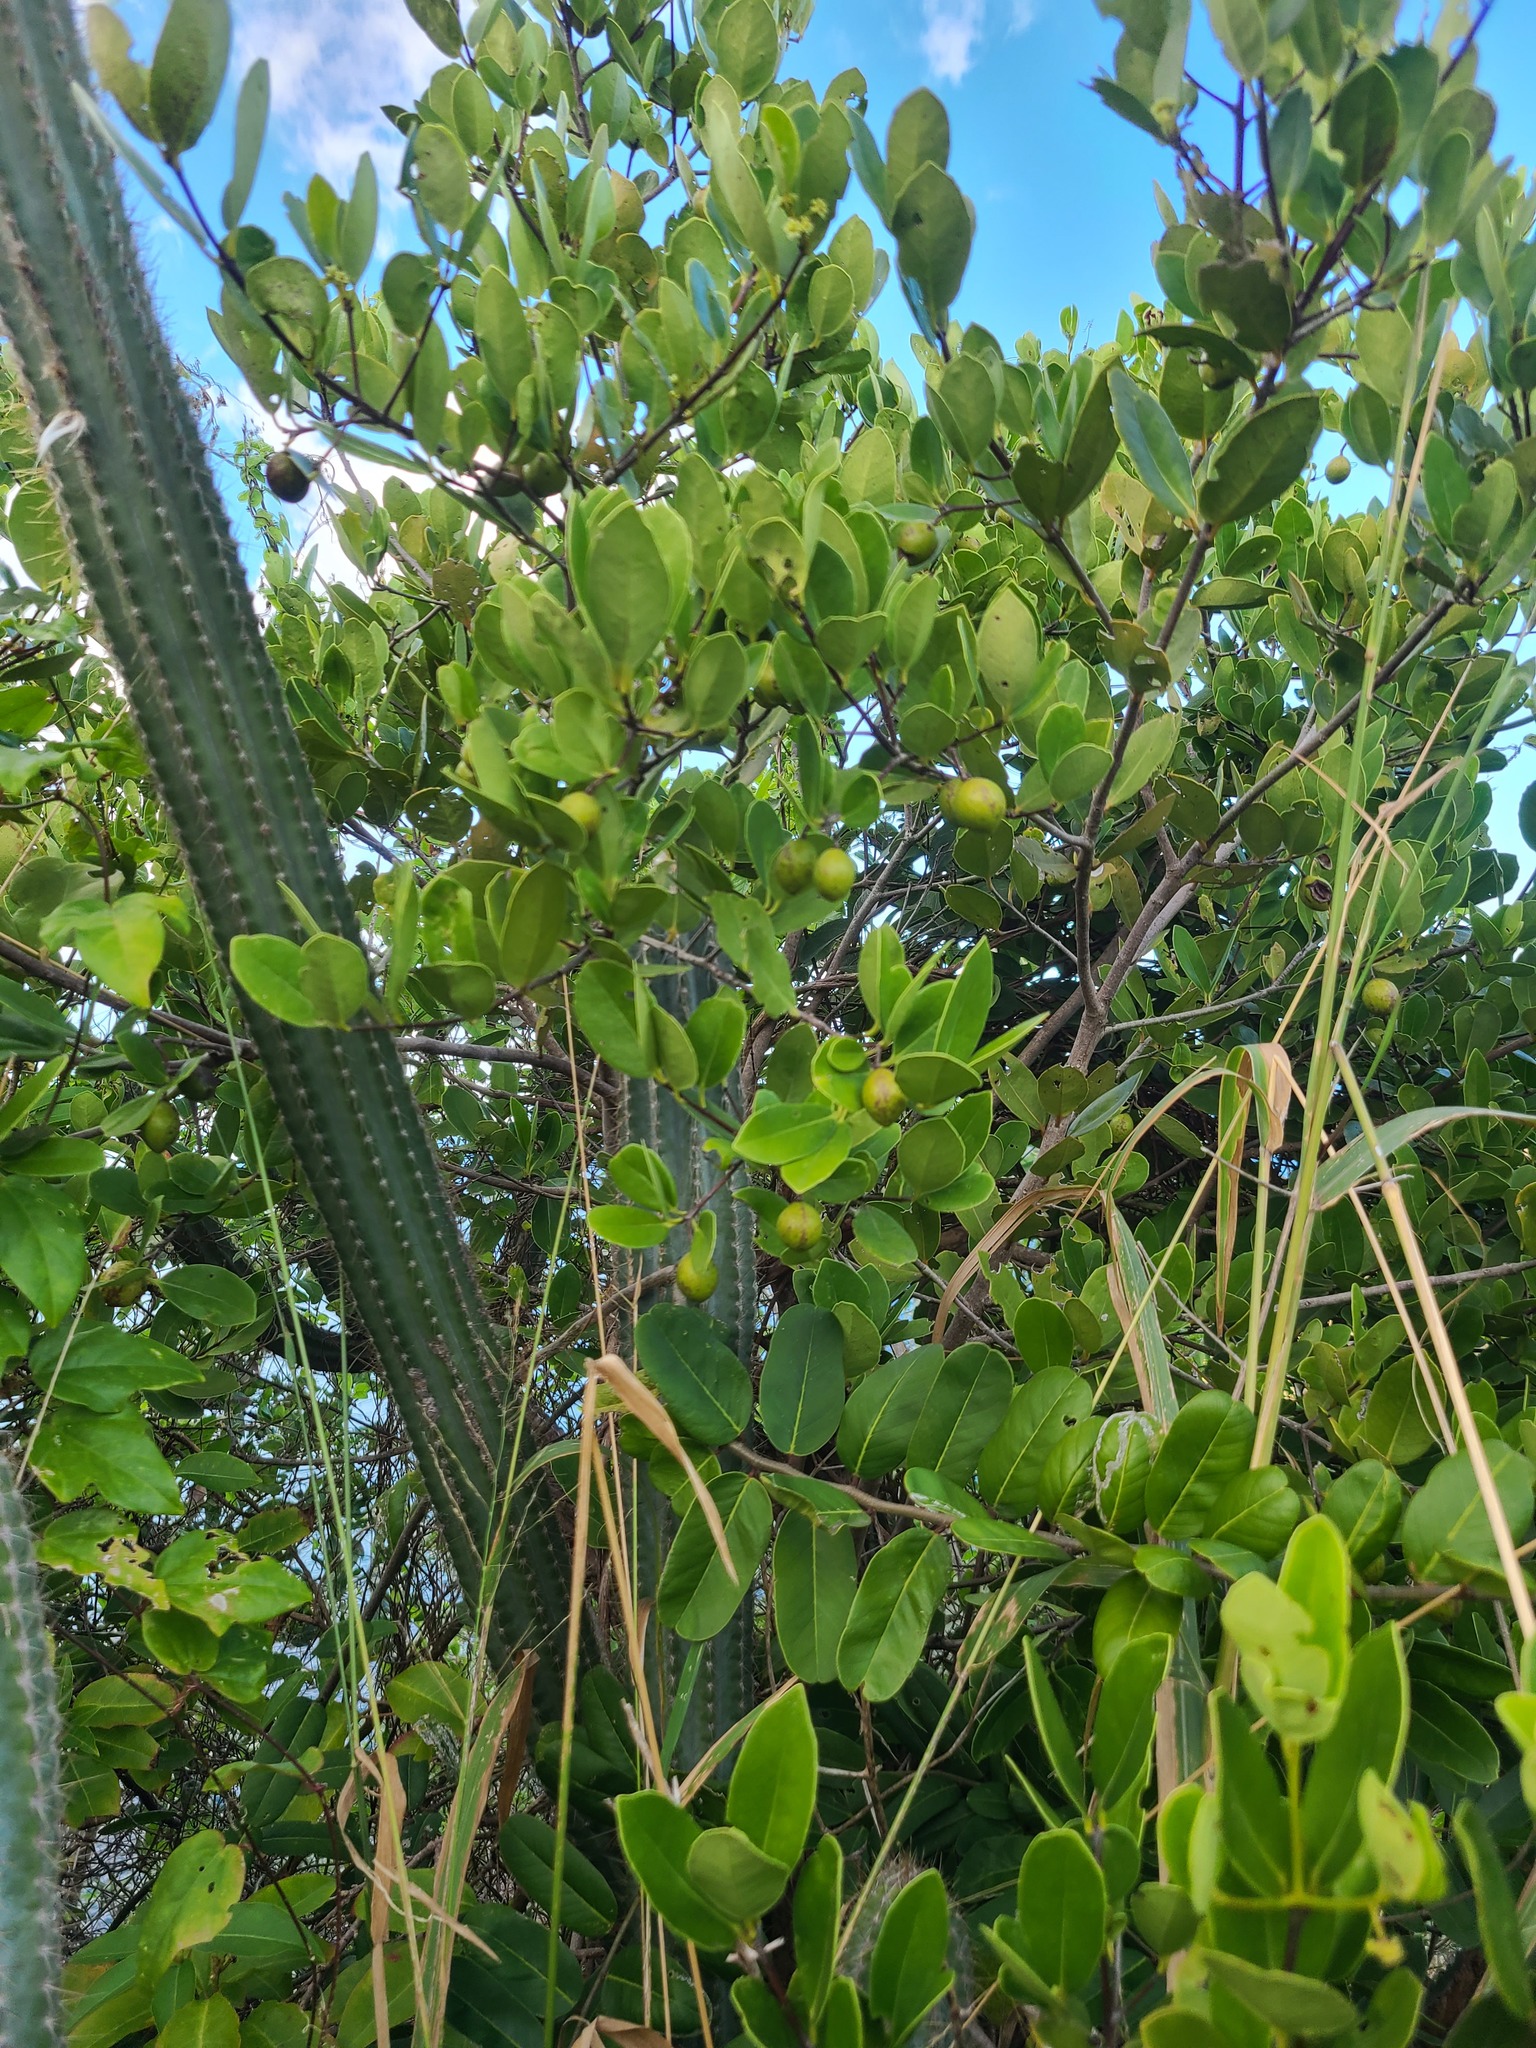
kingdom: Plantae
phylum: Tracheophyta
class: Magnoliopsida
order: Celastrales
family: Celastraceae
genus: Elaeodendron
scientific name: Elaeodendron xylocarpum
